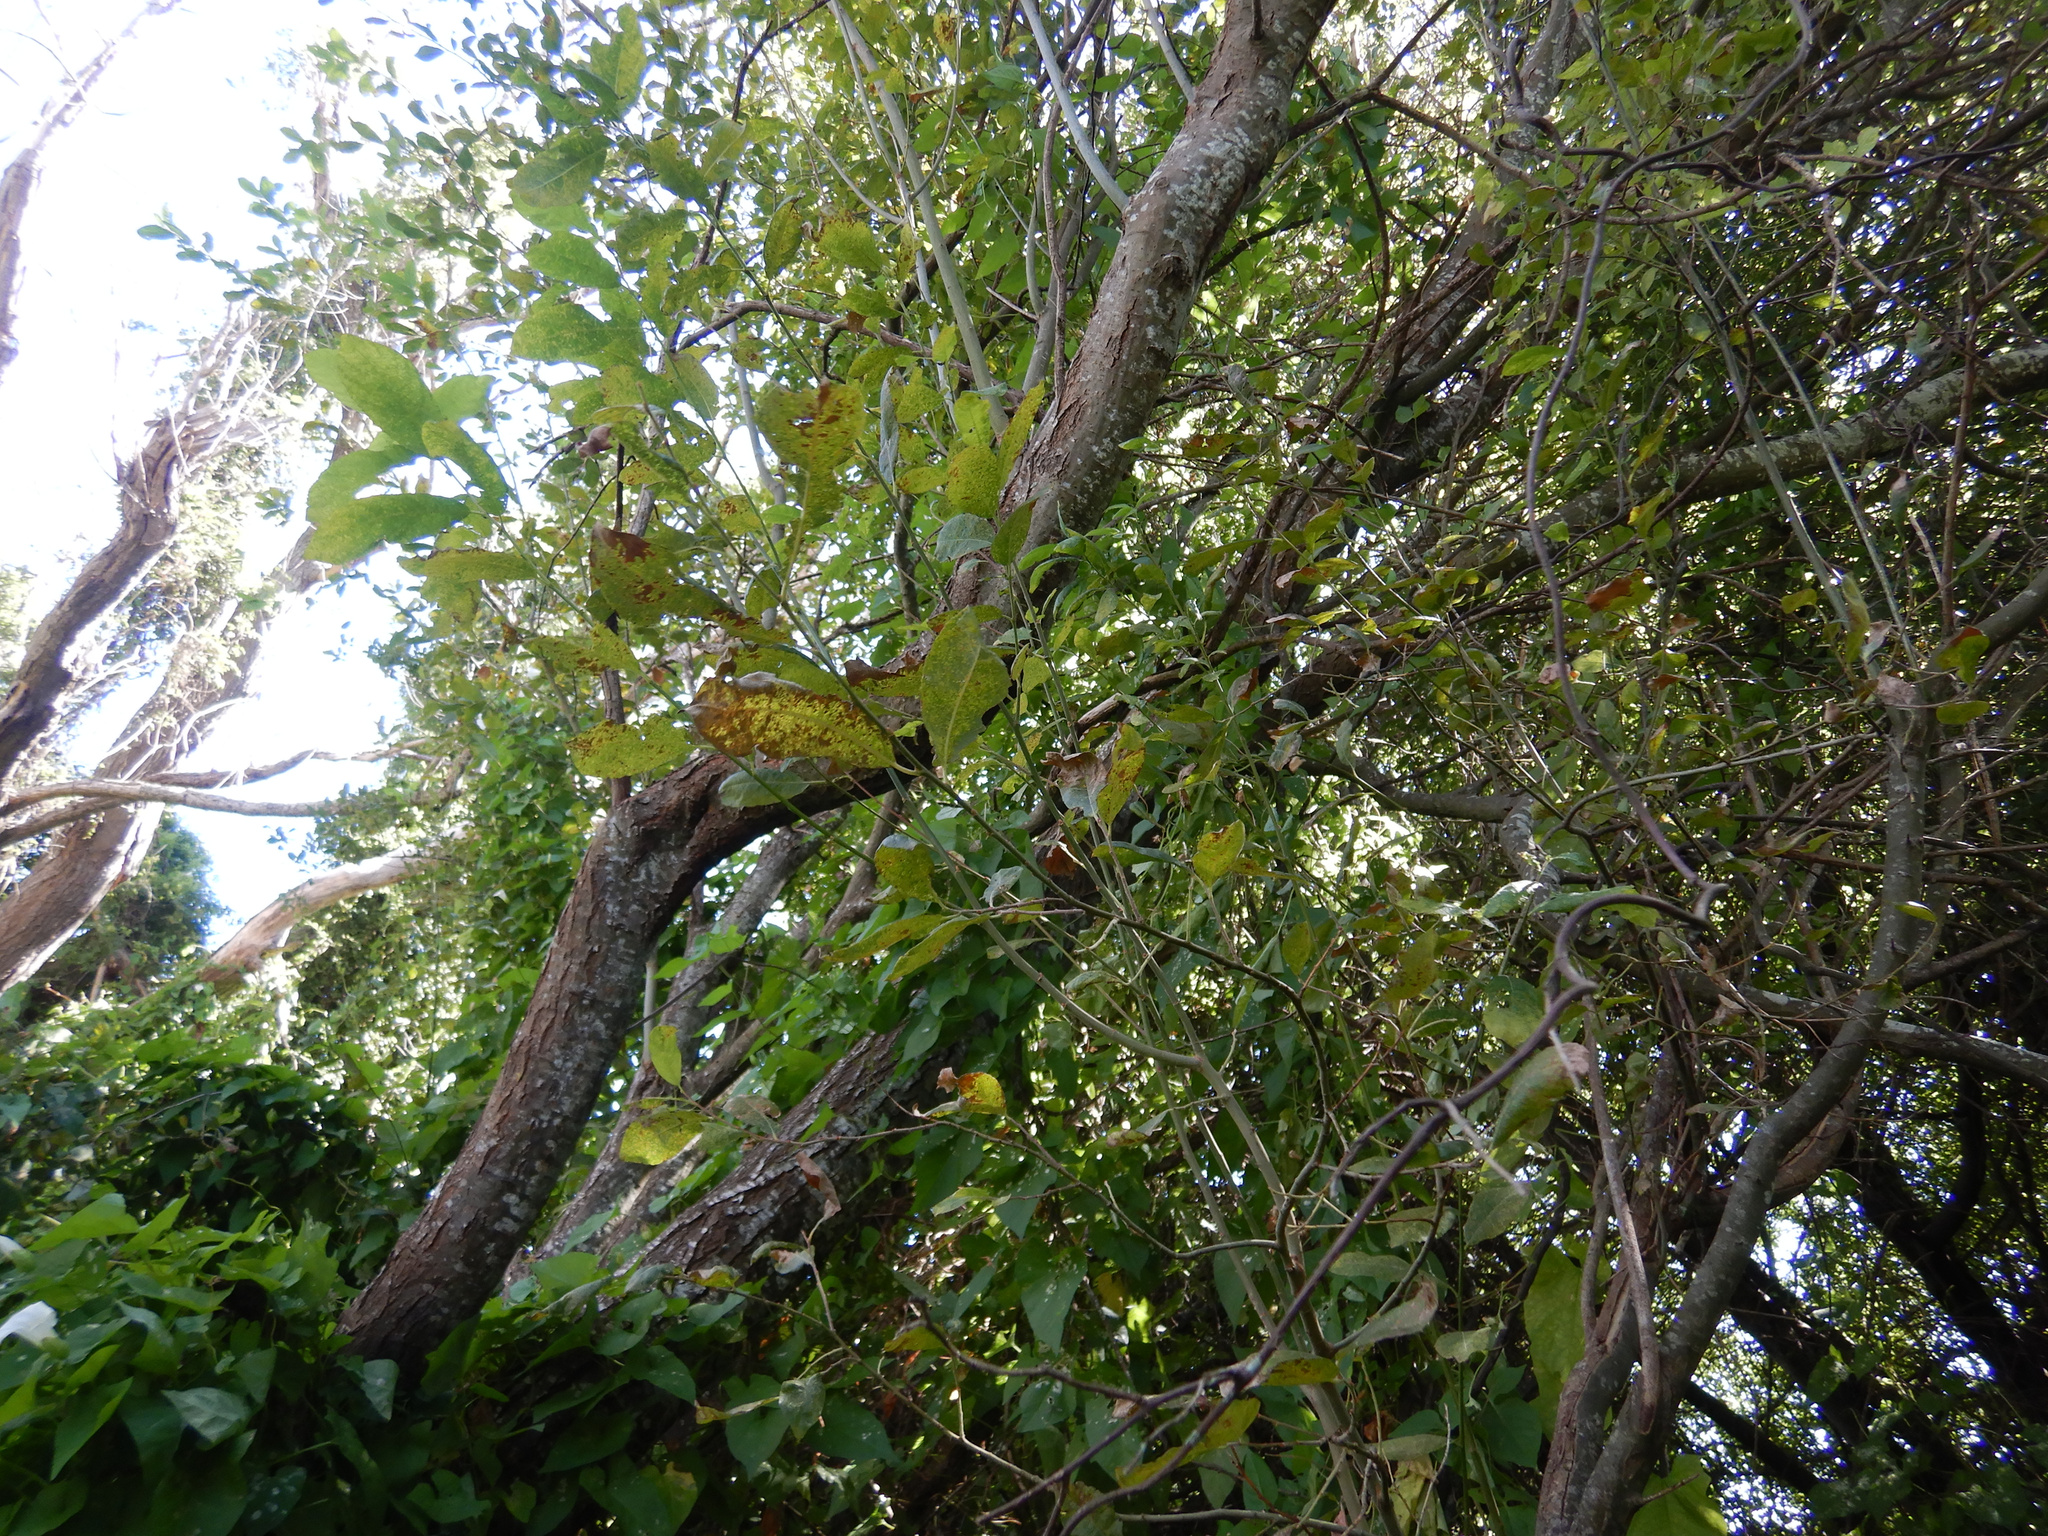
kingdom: Plantae
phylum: Tracheophyta
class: Magnoliopsida
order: Malpighiales
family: Salicaceae
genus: Salix
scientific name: Salix cinerea
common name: Common sallow
